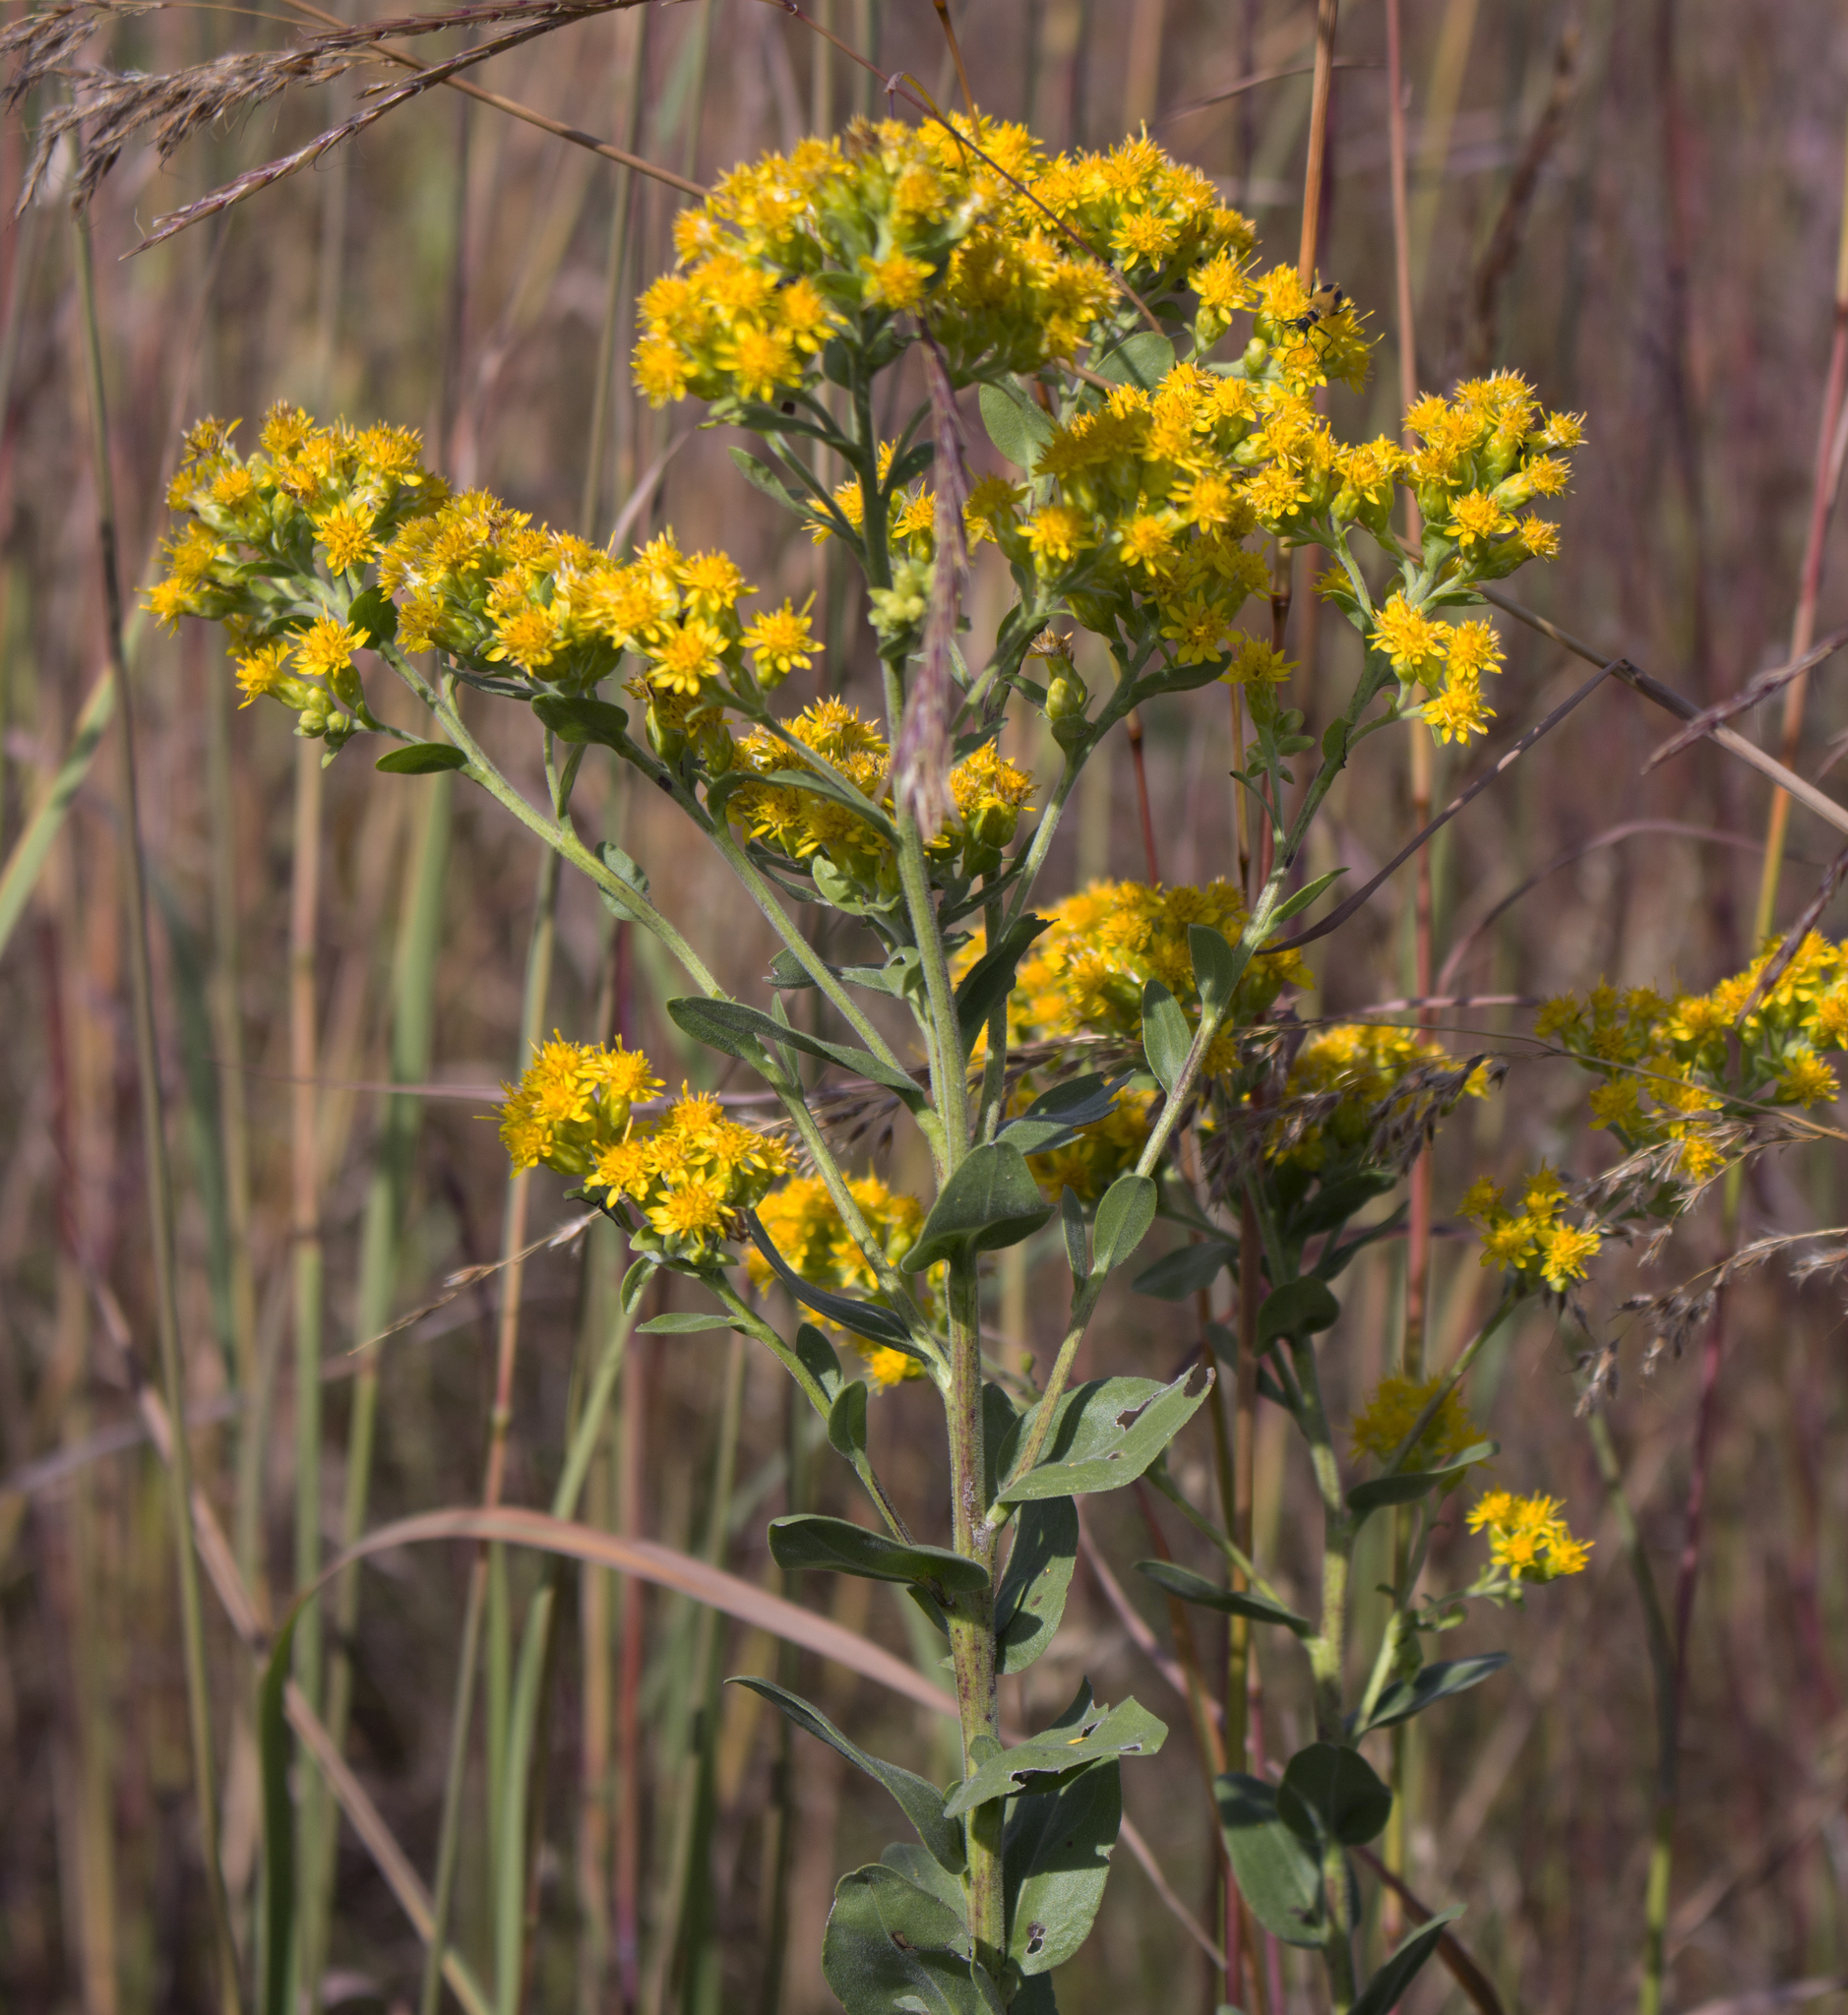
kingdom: Plantae
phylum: Tracheophyta
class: Magnoliopsida
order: Asterales
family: Asteraceae
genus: Solidago
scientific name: Solidago rigida
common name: Rigid goldenrod
